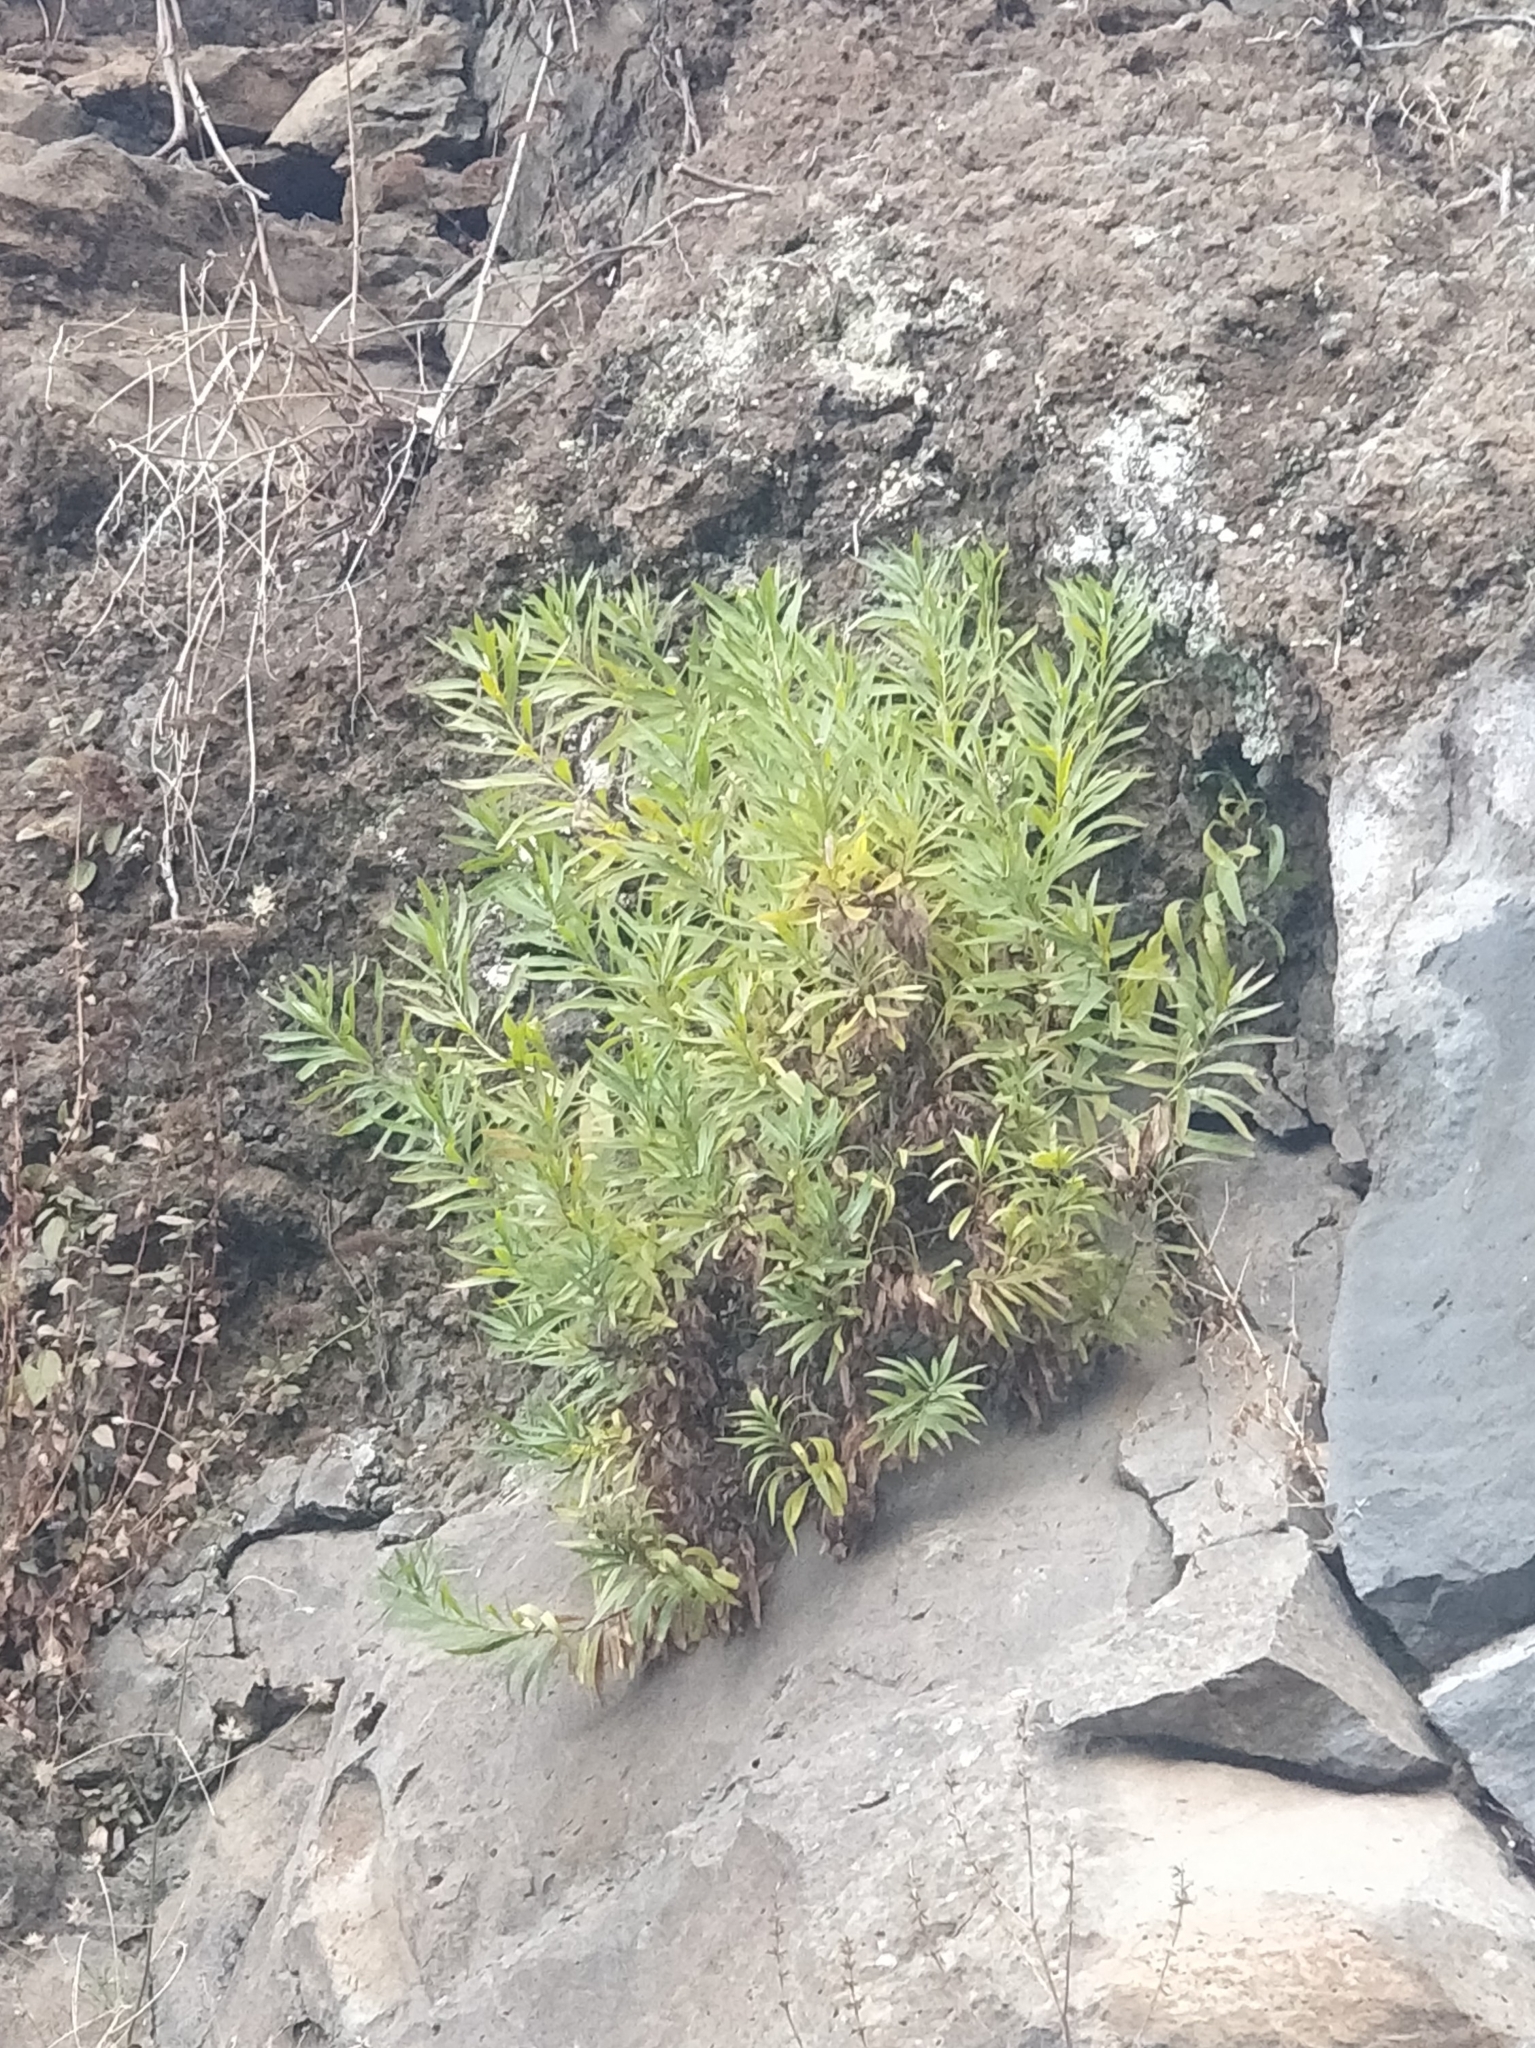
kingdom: Plantae
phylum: Tracheophyta
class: Magnoliopsida
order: Lamiales
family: Plantaginaceae
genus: Globularia
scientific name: Globularia salicina
